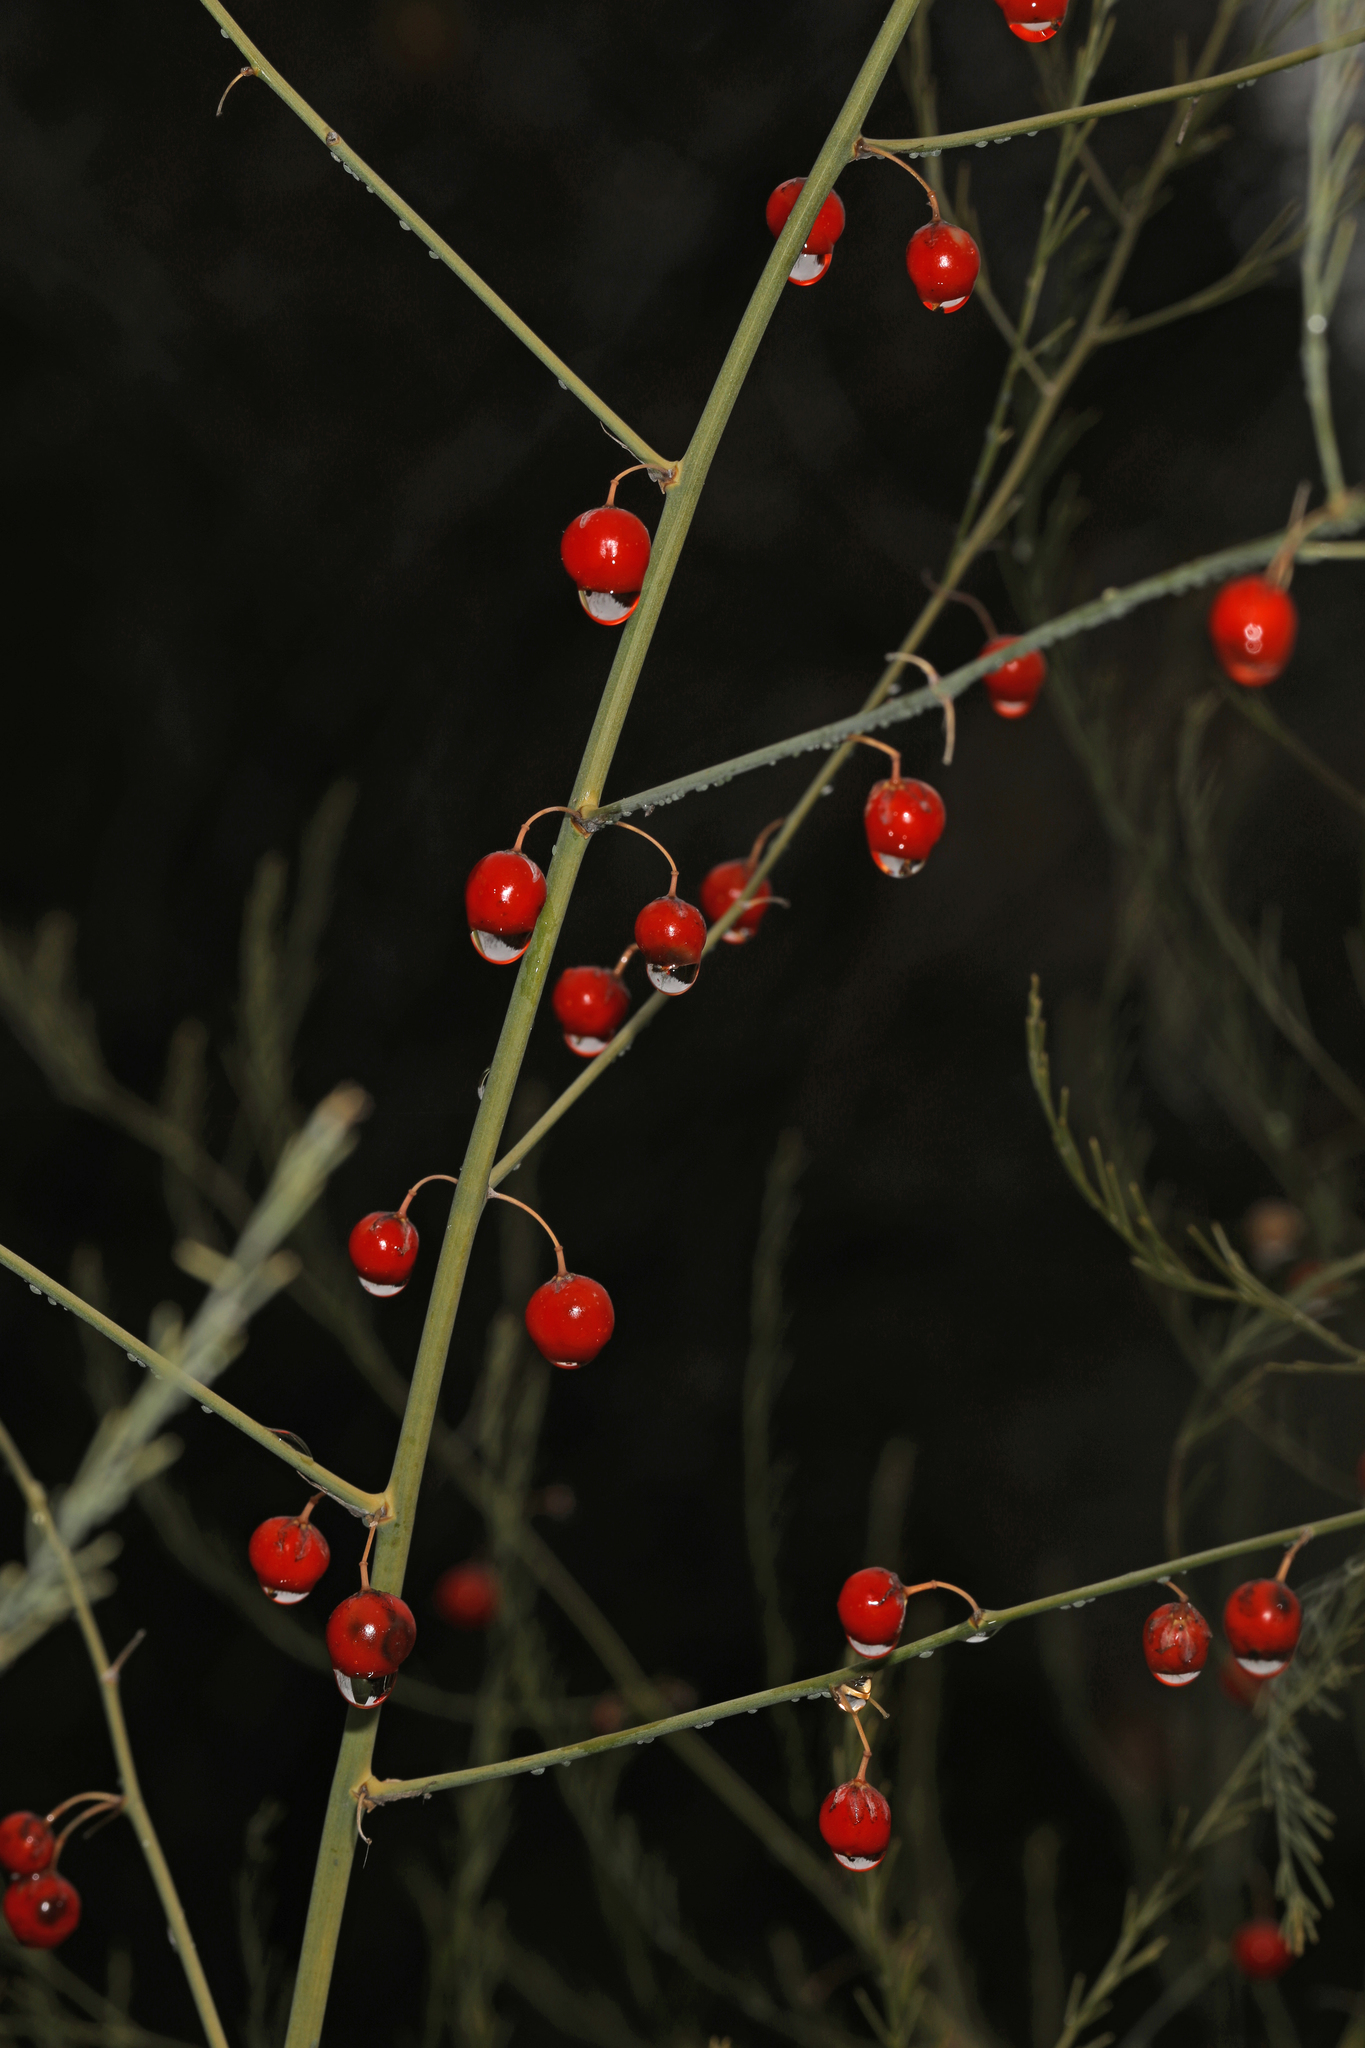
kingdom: Plantae
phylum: Tracheophyta
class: Liliopsida
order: Asparagales
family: Asparagaceae
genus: Asparagus
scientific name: Asparagus officinalis
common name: Garden asparagus
